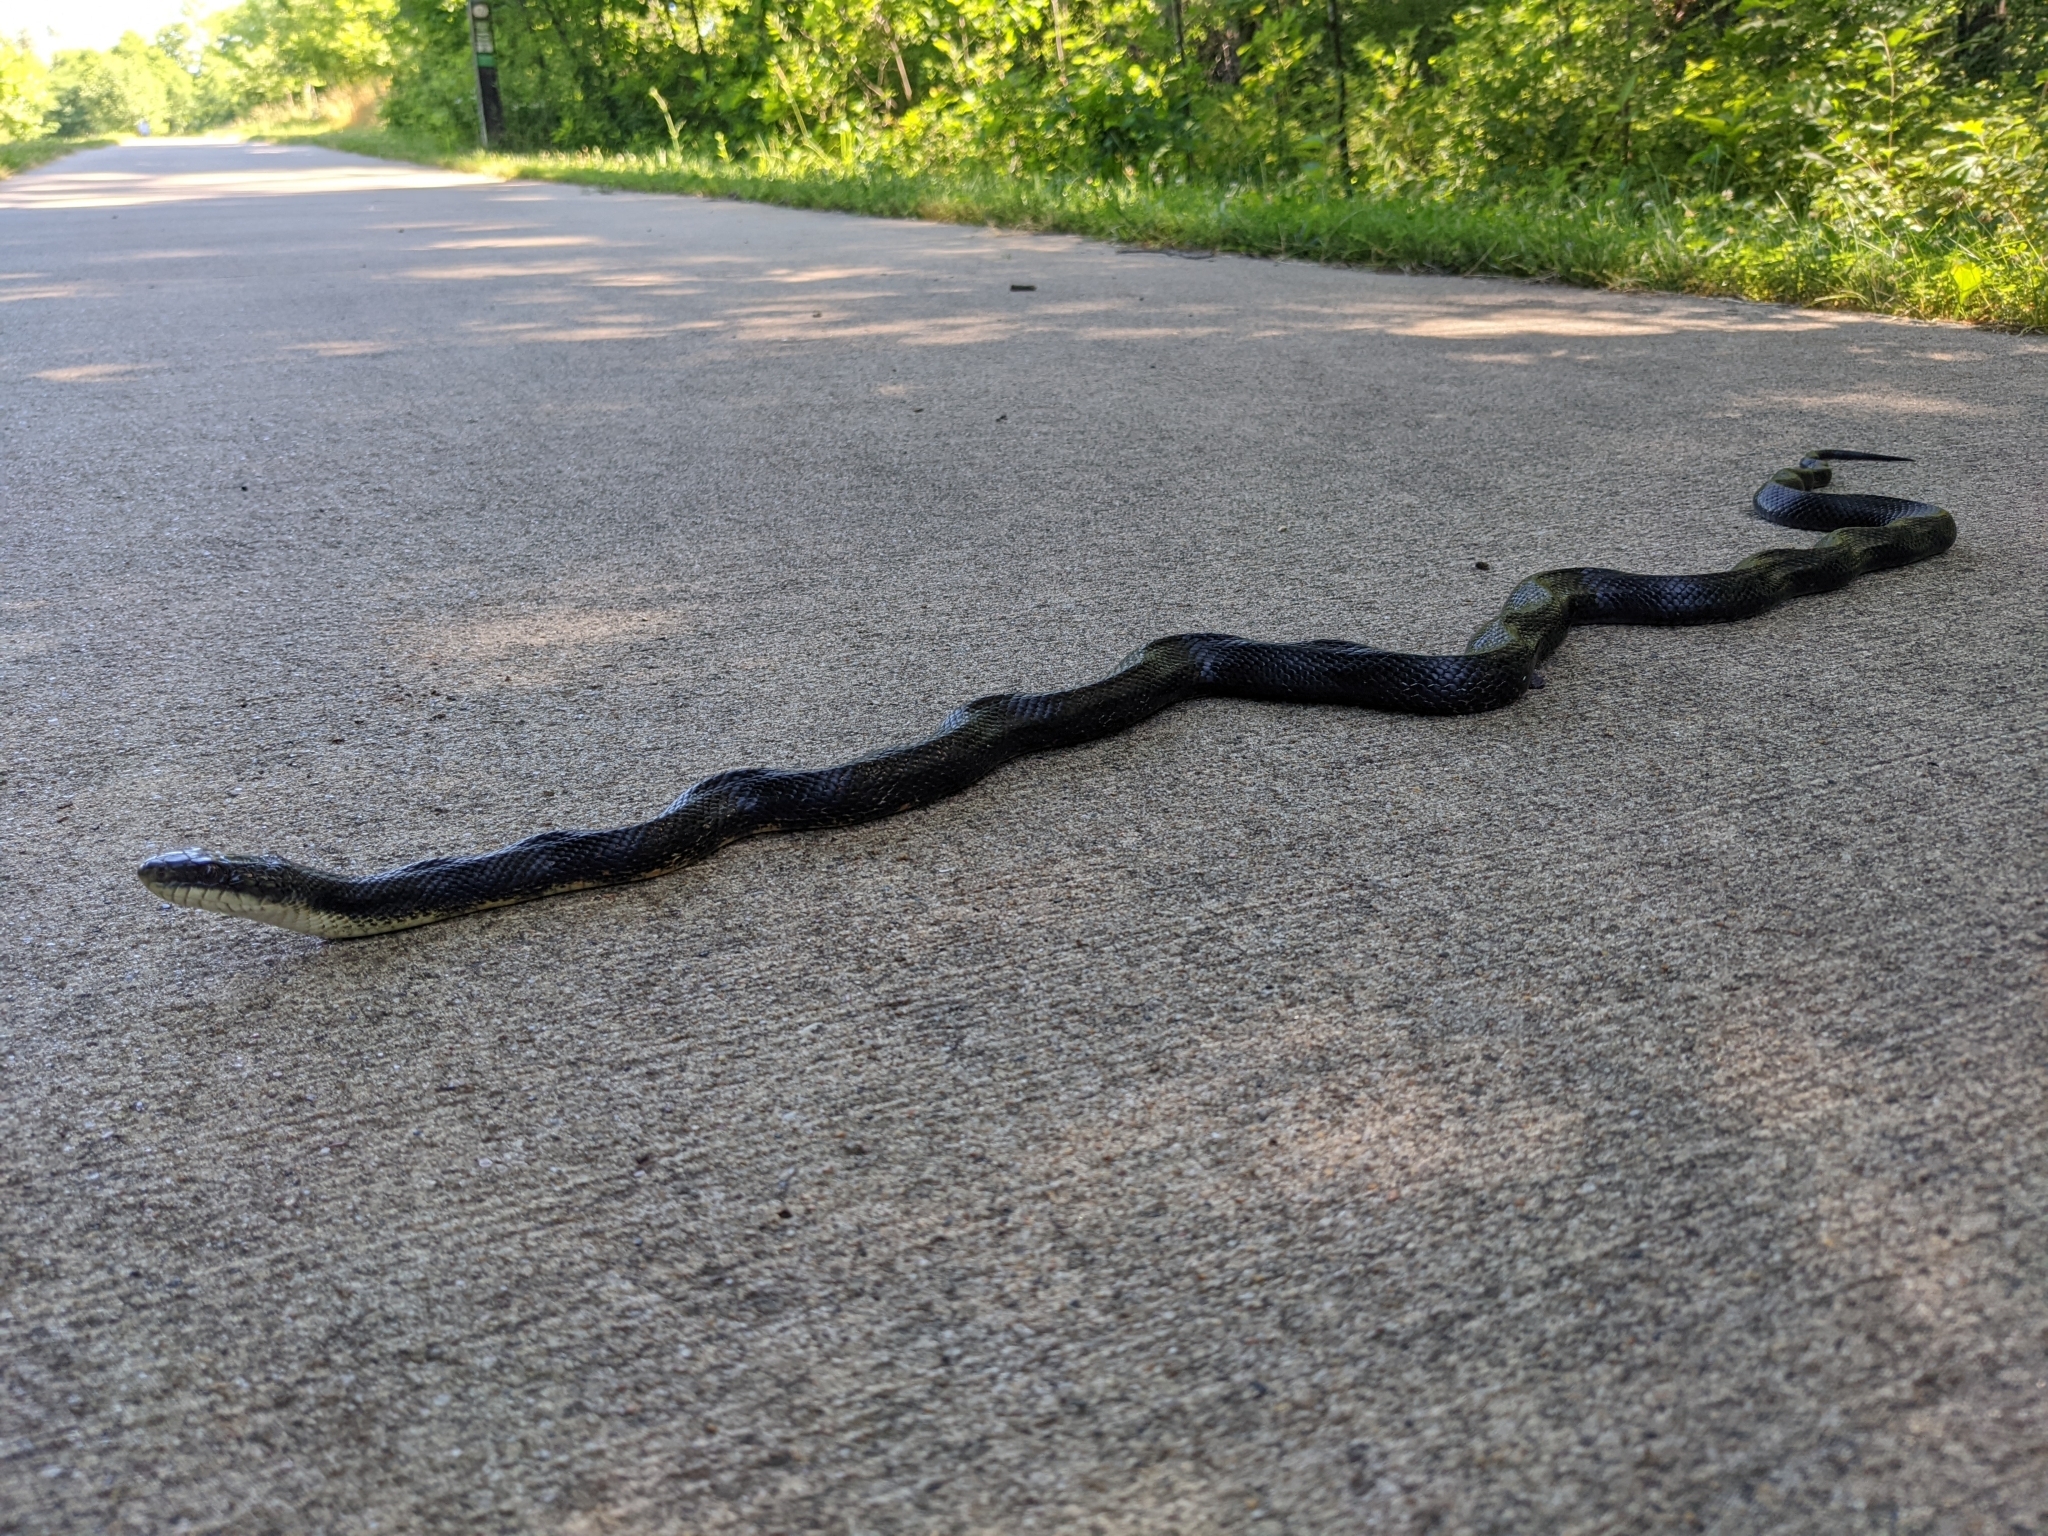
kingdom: Animalia
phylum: Chordata
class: Squamata
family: Colubridae
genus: Pantherophis
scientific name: Pantherophis obsoletus
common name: Black rat snake
